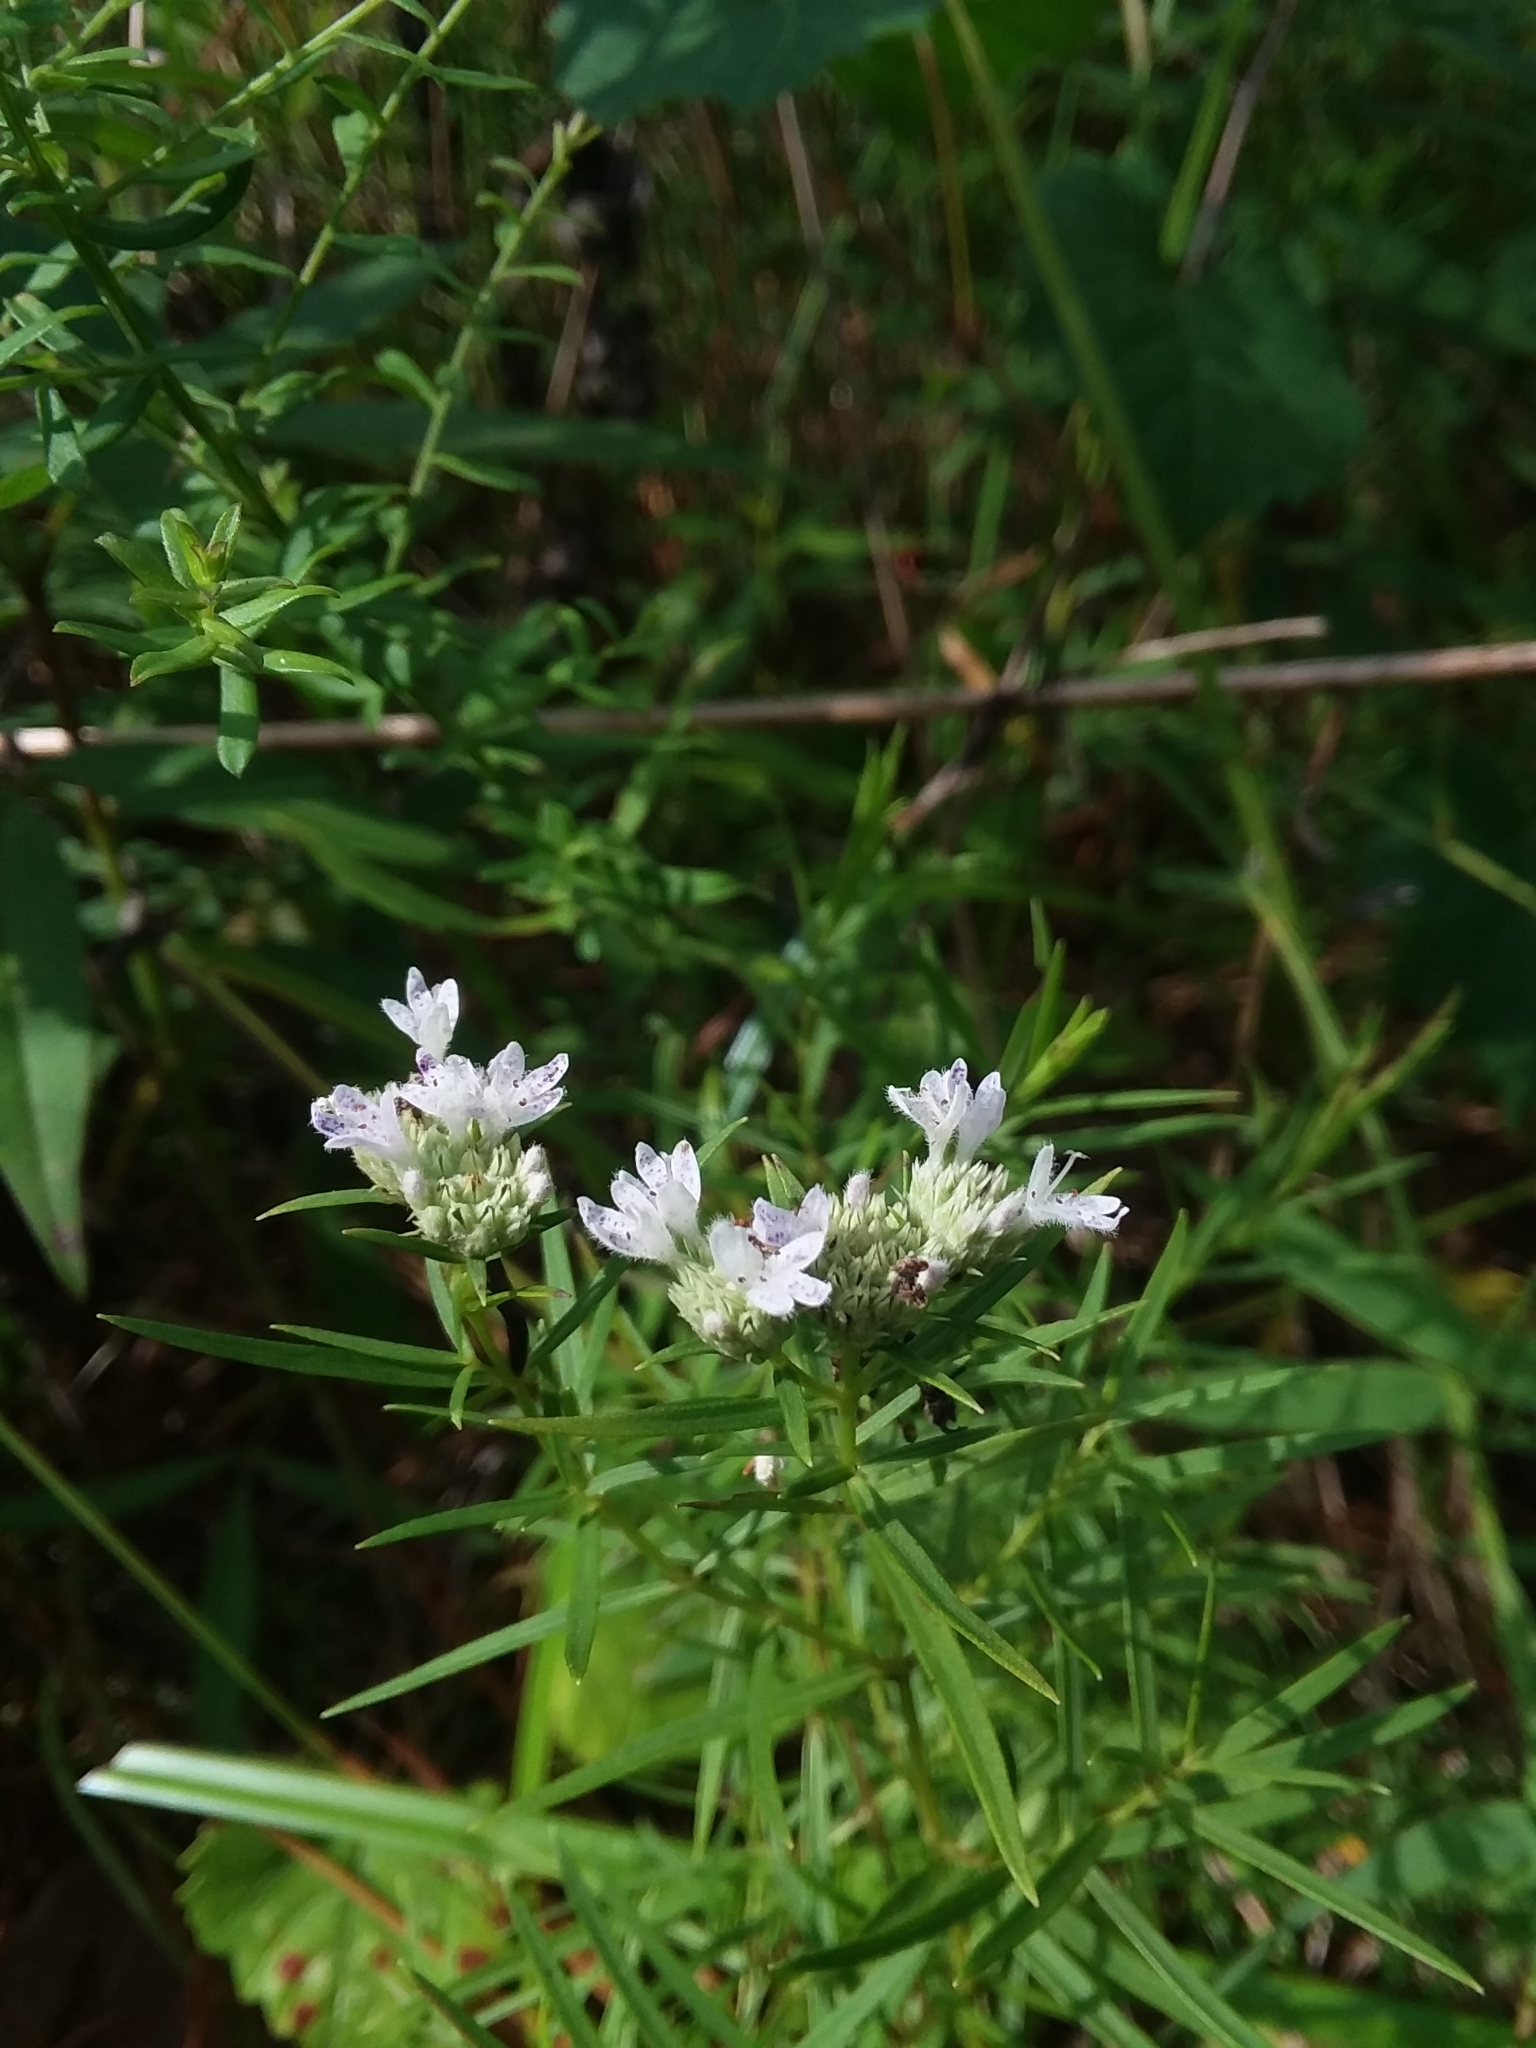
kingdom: Plantae
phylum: Tracheophyta
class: Magnoliopsida
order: Lamiales
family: Lamiaceae
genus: Pycnanthemum
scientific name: Pycnanthemum tenuifolium
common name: Narrow-leaf mountain-mint
